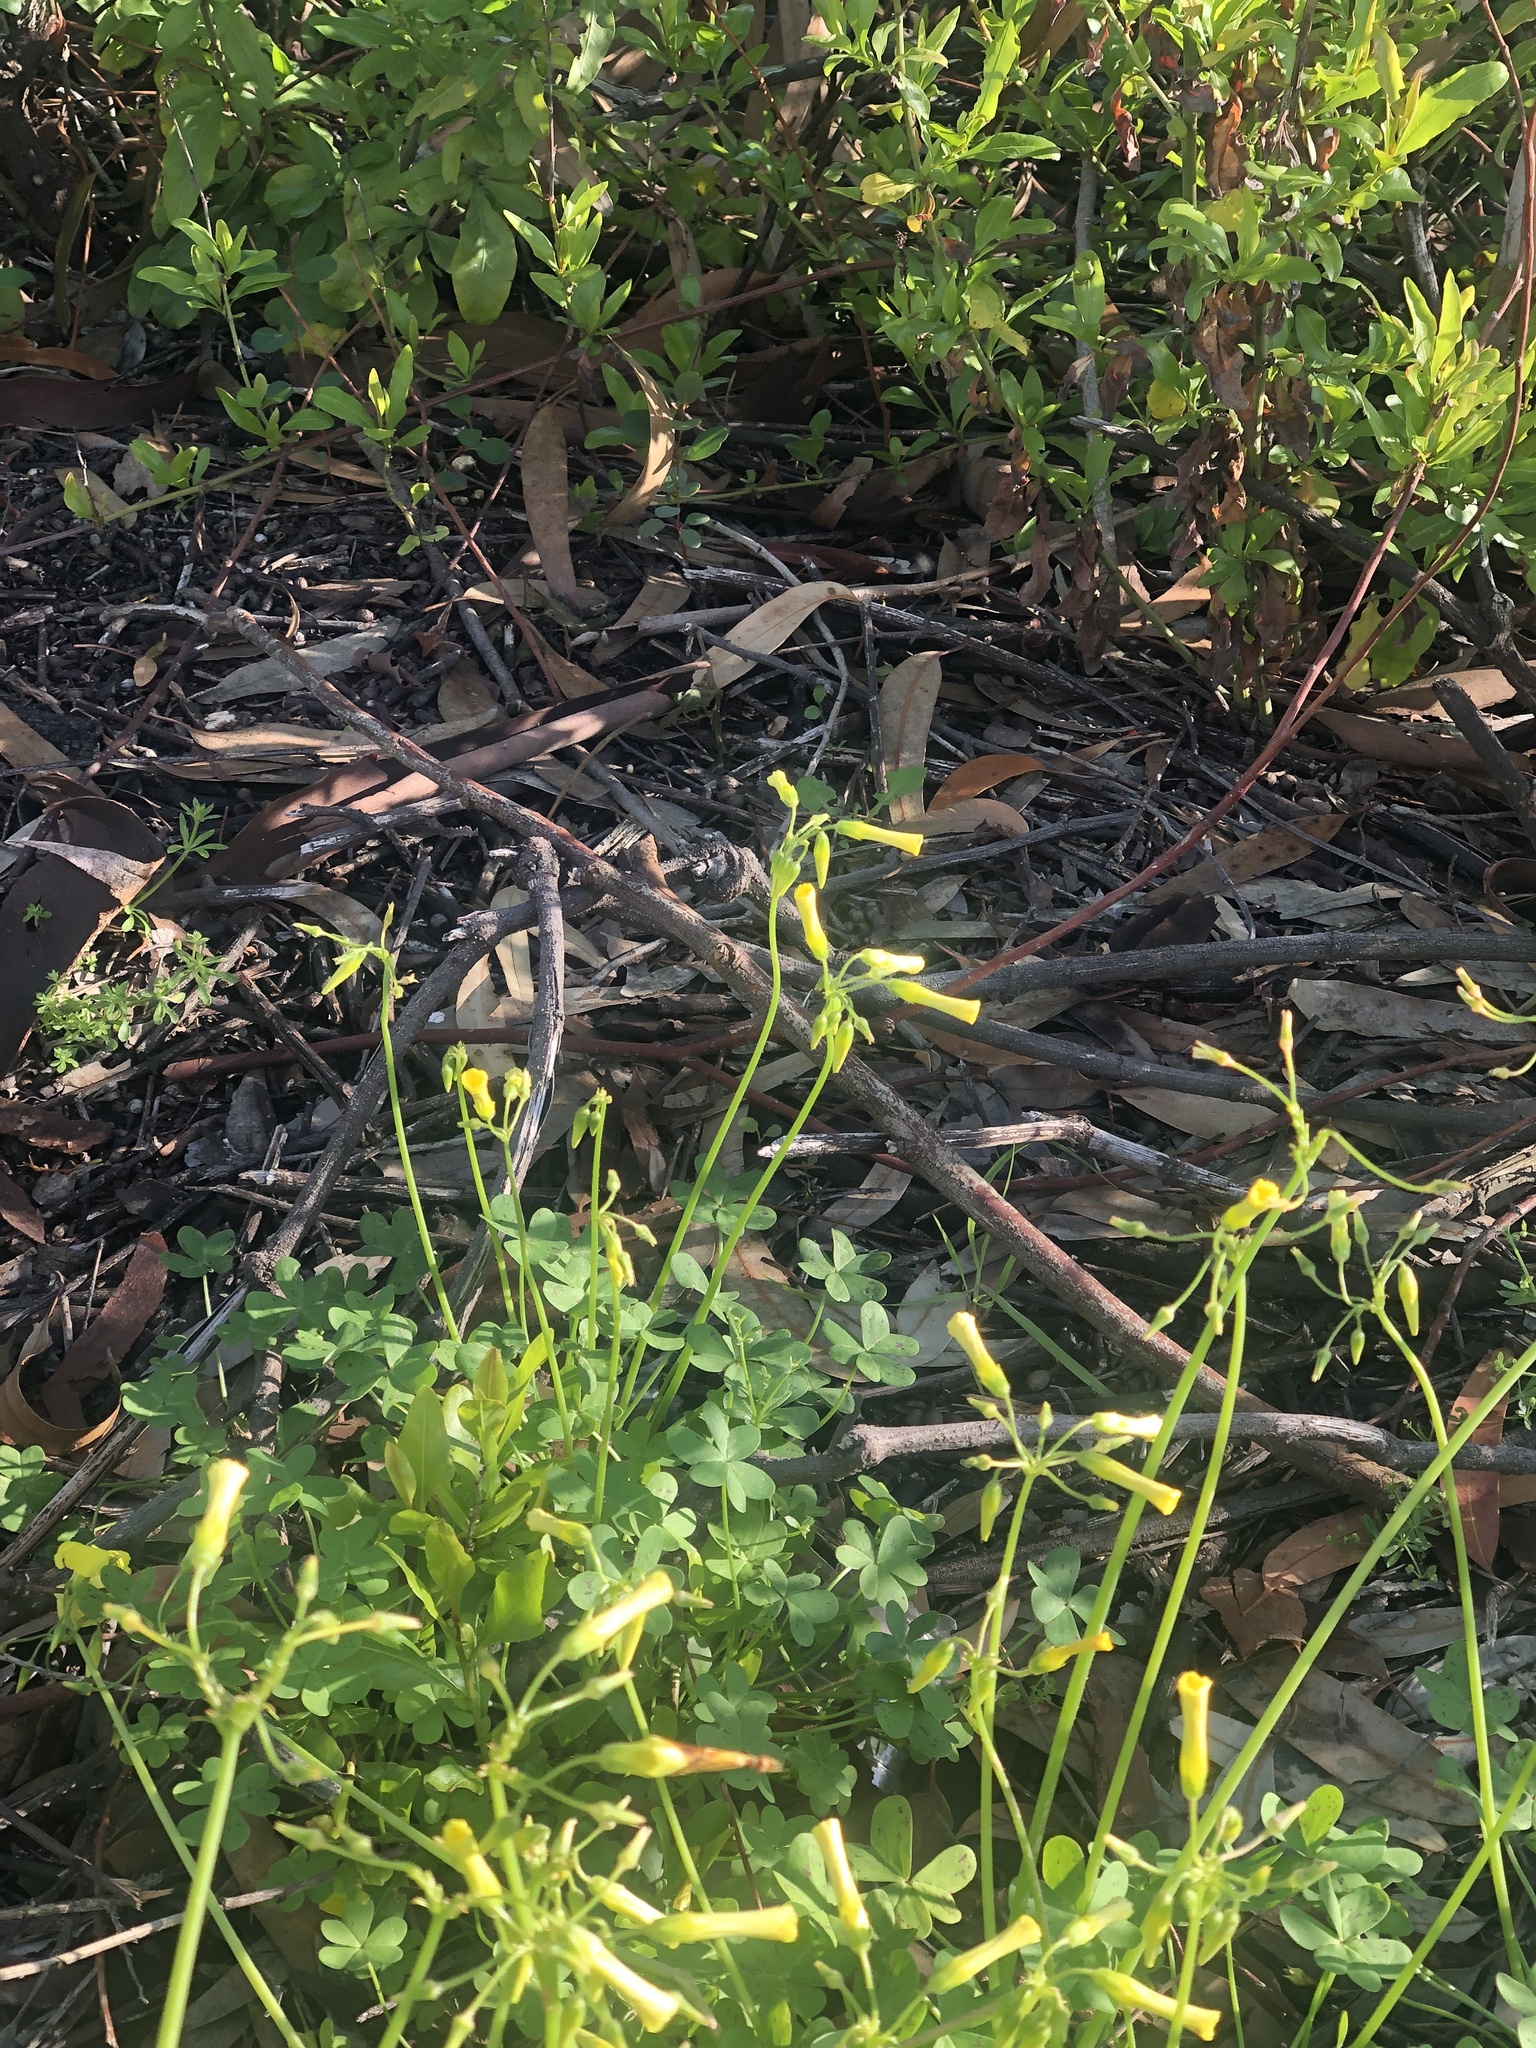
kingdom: Plantae
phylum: Tracheophyta
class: Magnoliopsida
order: Oxalidales
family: Oxalidaceae
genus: Oxalis
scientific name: Oxalis pes-caprae
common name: Bermuda-buttercup
